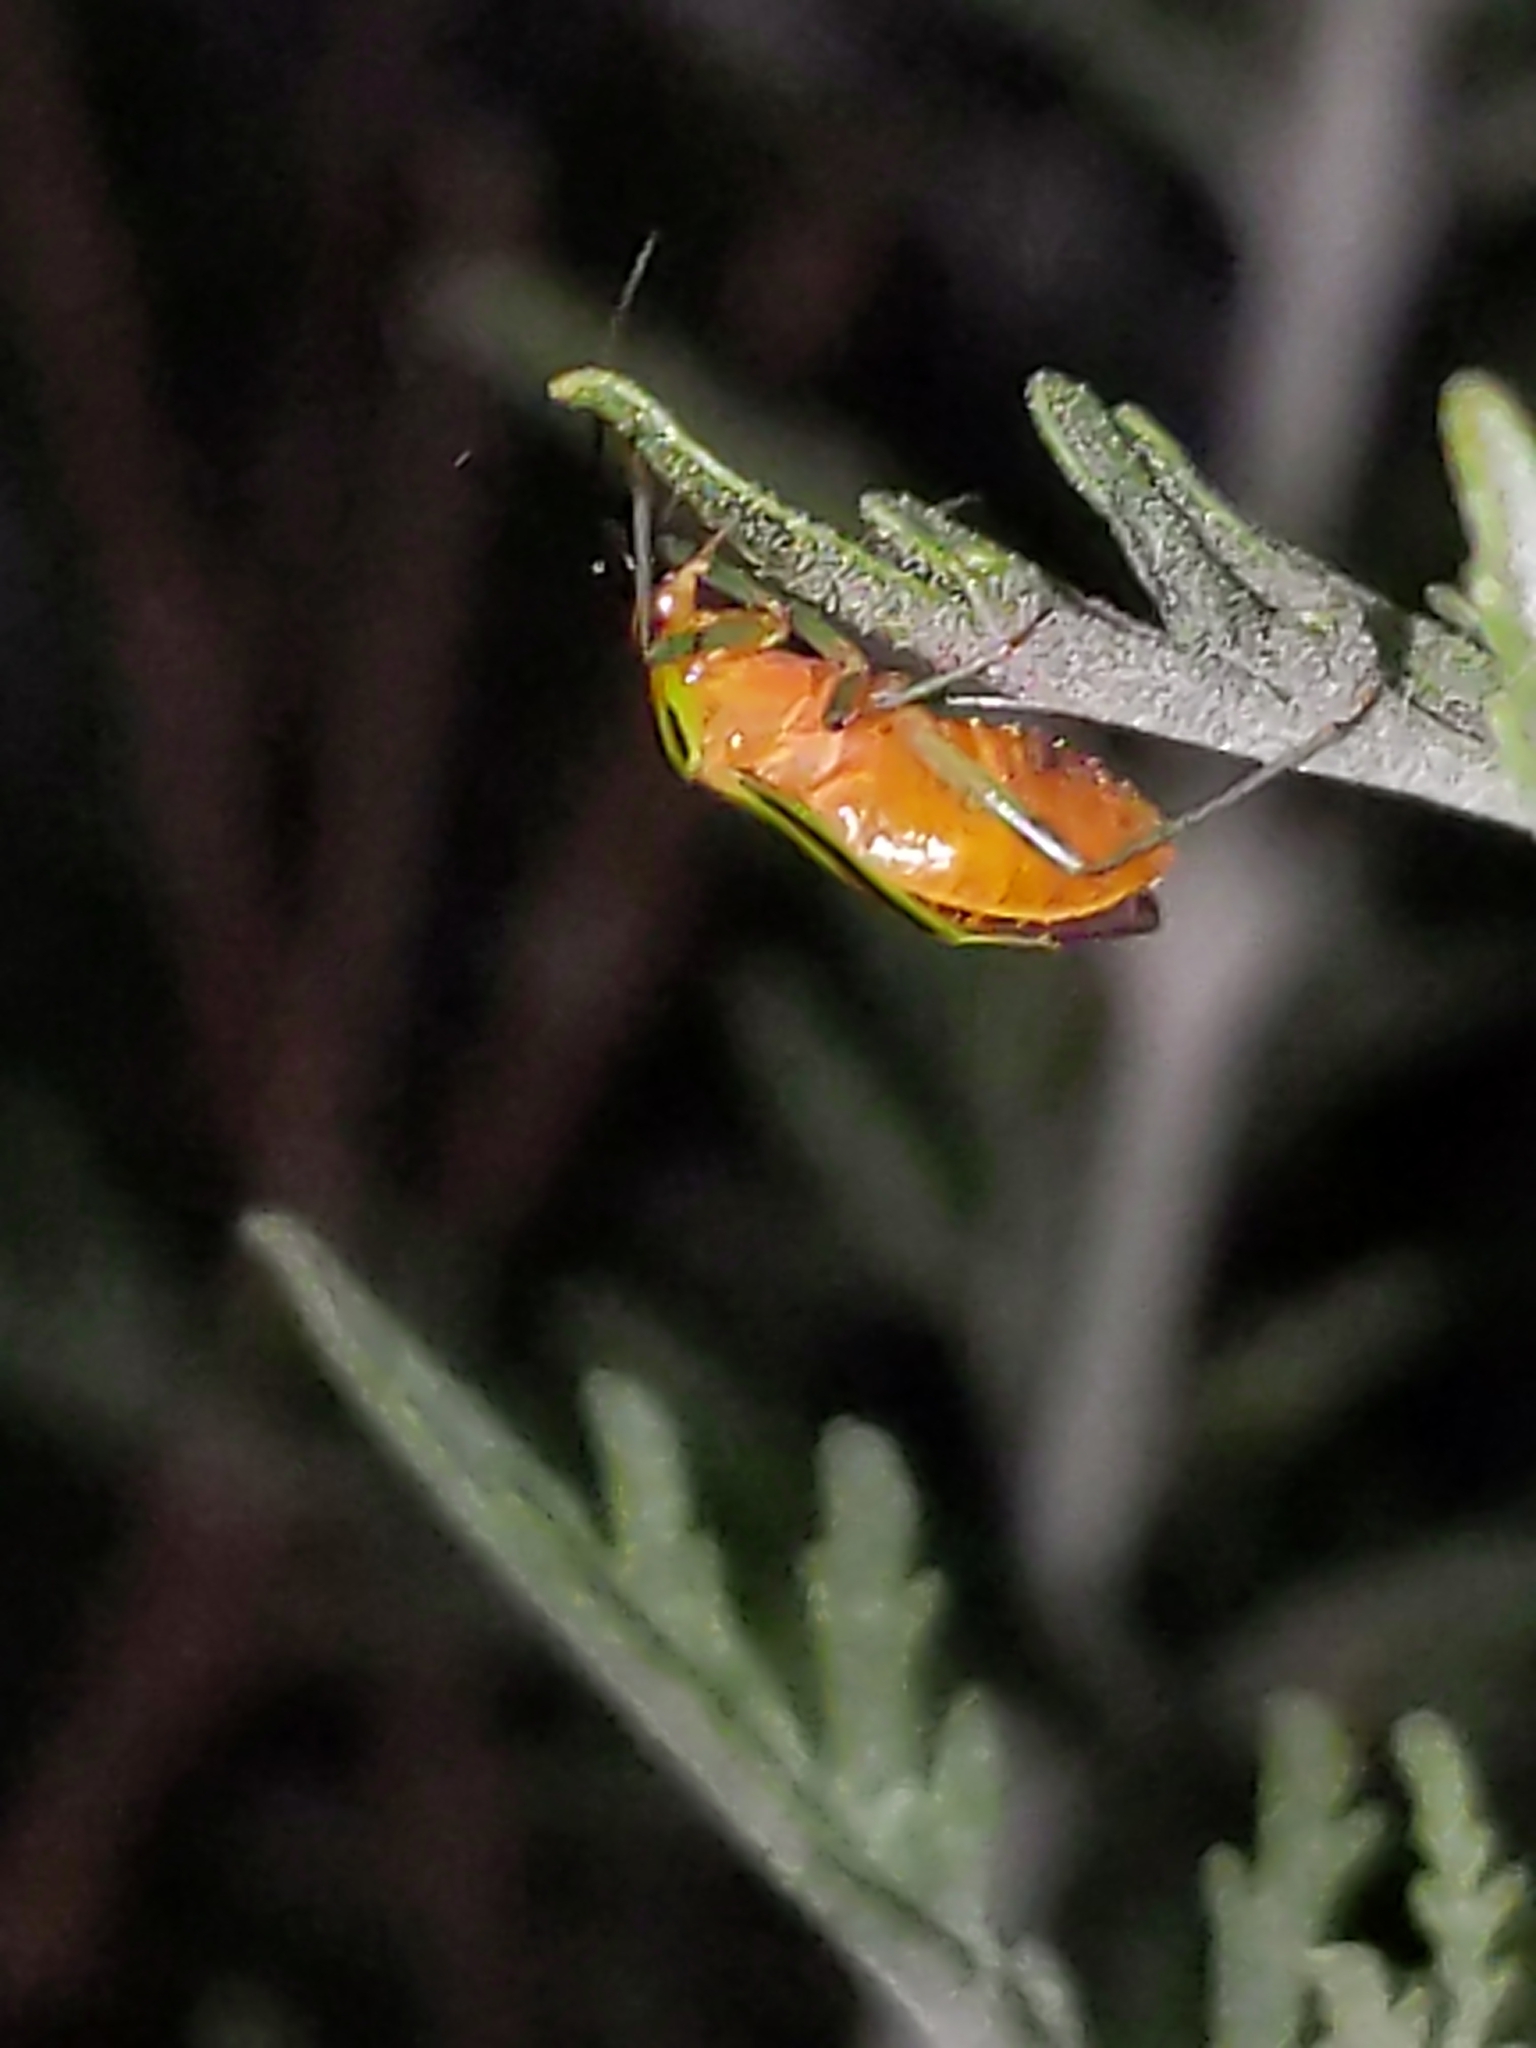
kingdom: Animalia
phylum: Arthropoda
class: Insecta
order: Hemiptera
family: Miridae
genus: Poecilocapsus
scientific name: Poecilocapsus lineatus
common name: Four-lined plant bug
